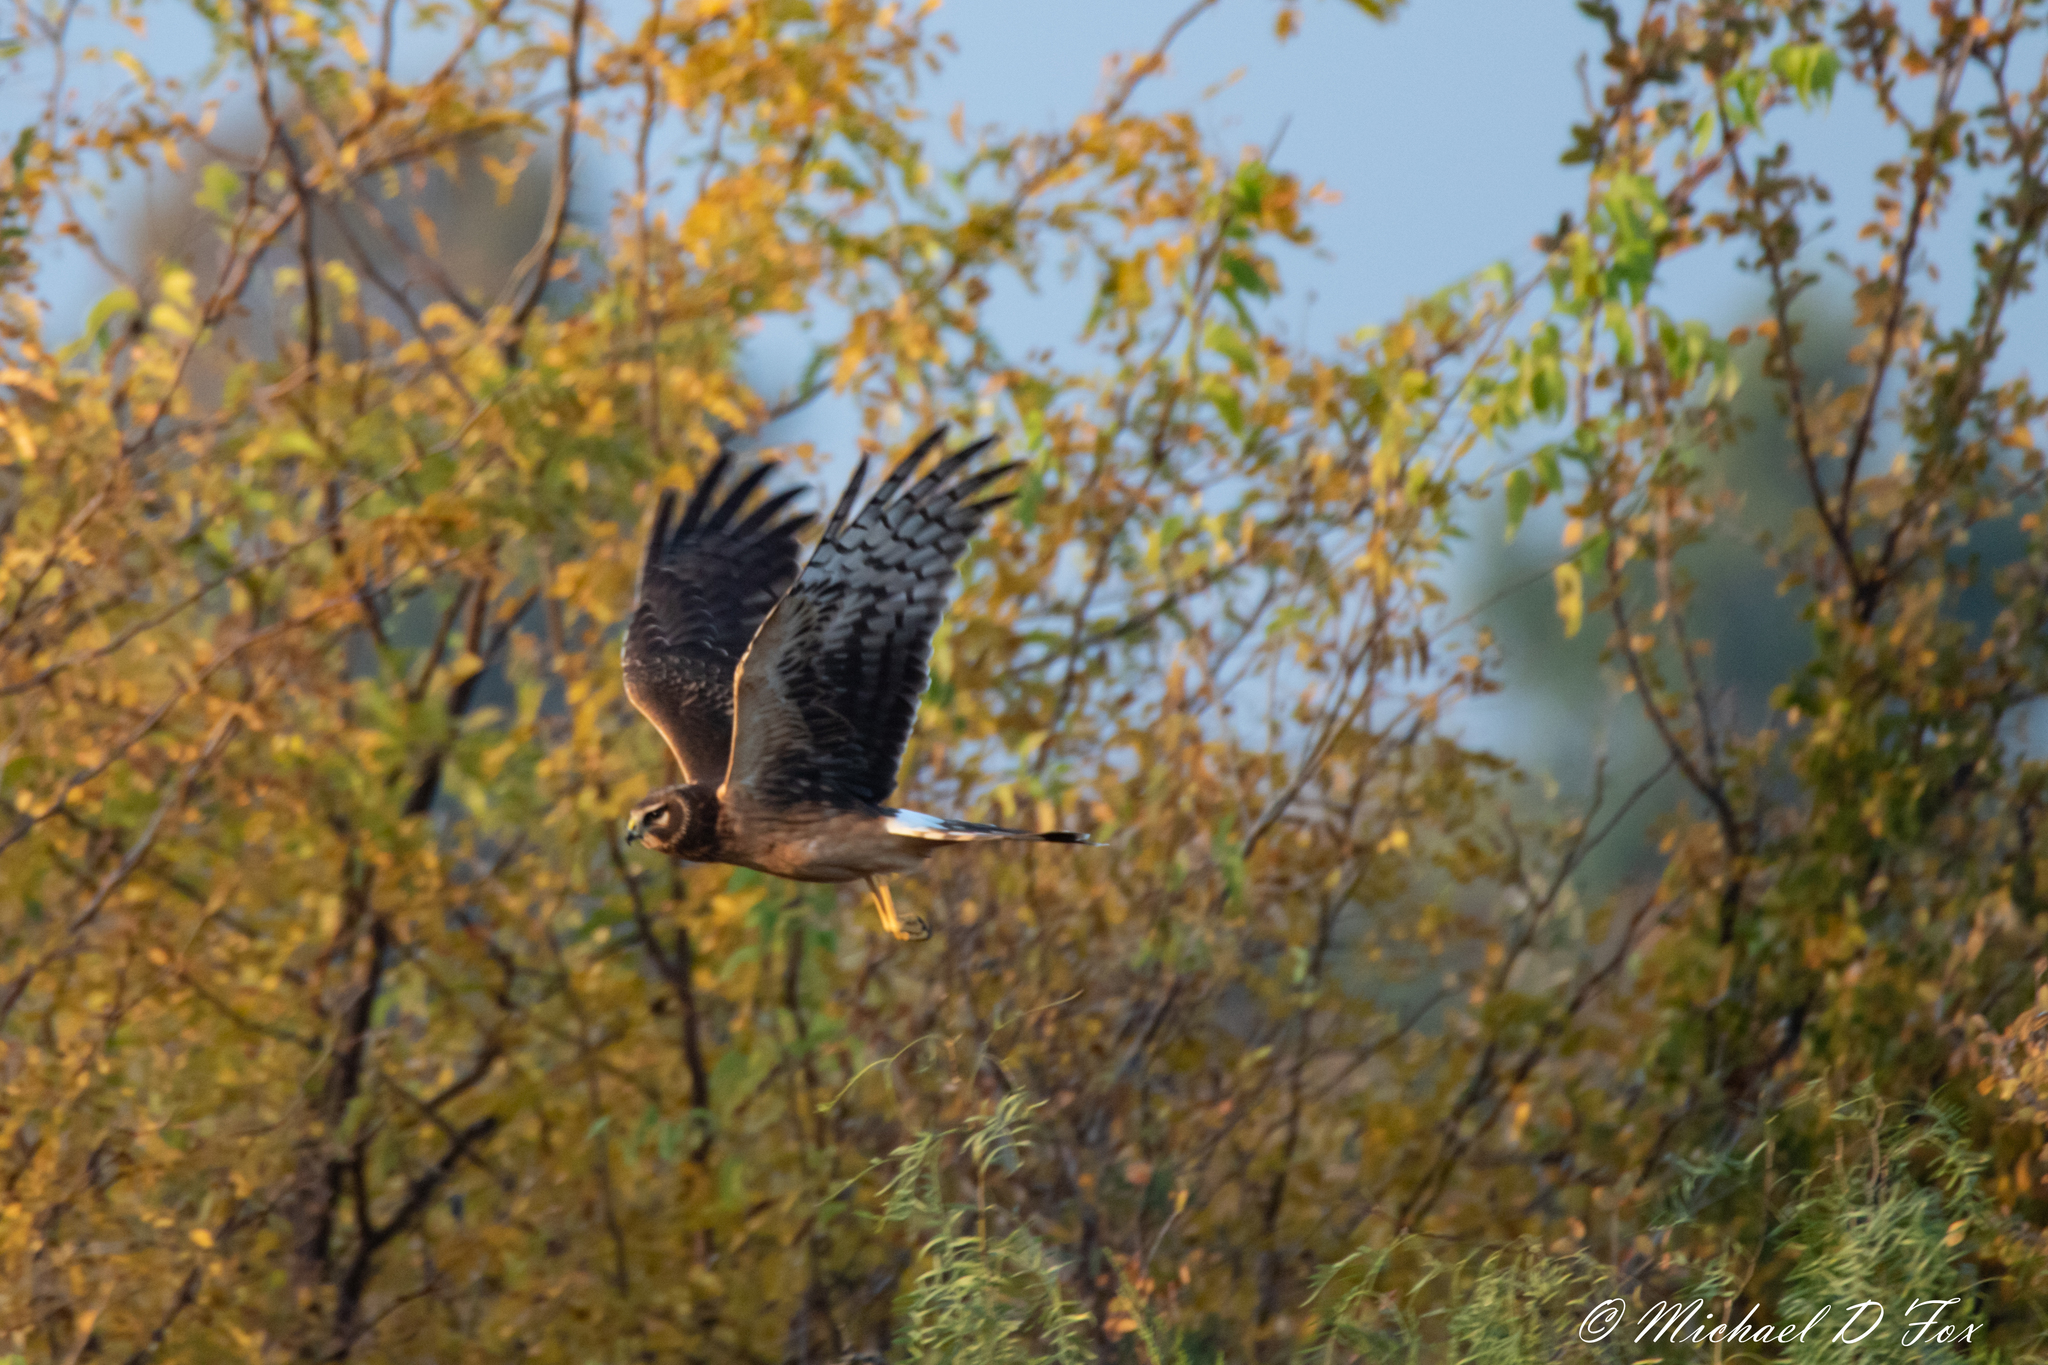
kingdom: Animalia
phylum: Chordata
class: Aves
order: Accipitriformes
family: Accipitridae
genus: Circus
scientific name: Circus cyaneus
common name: Hen harrier
